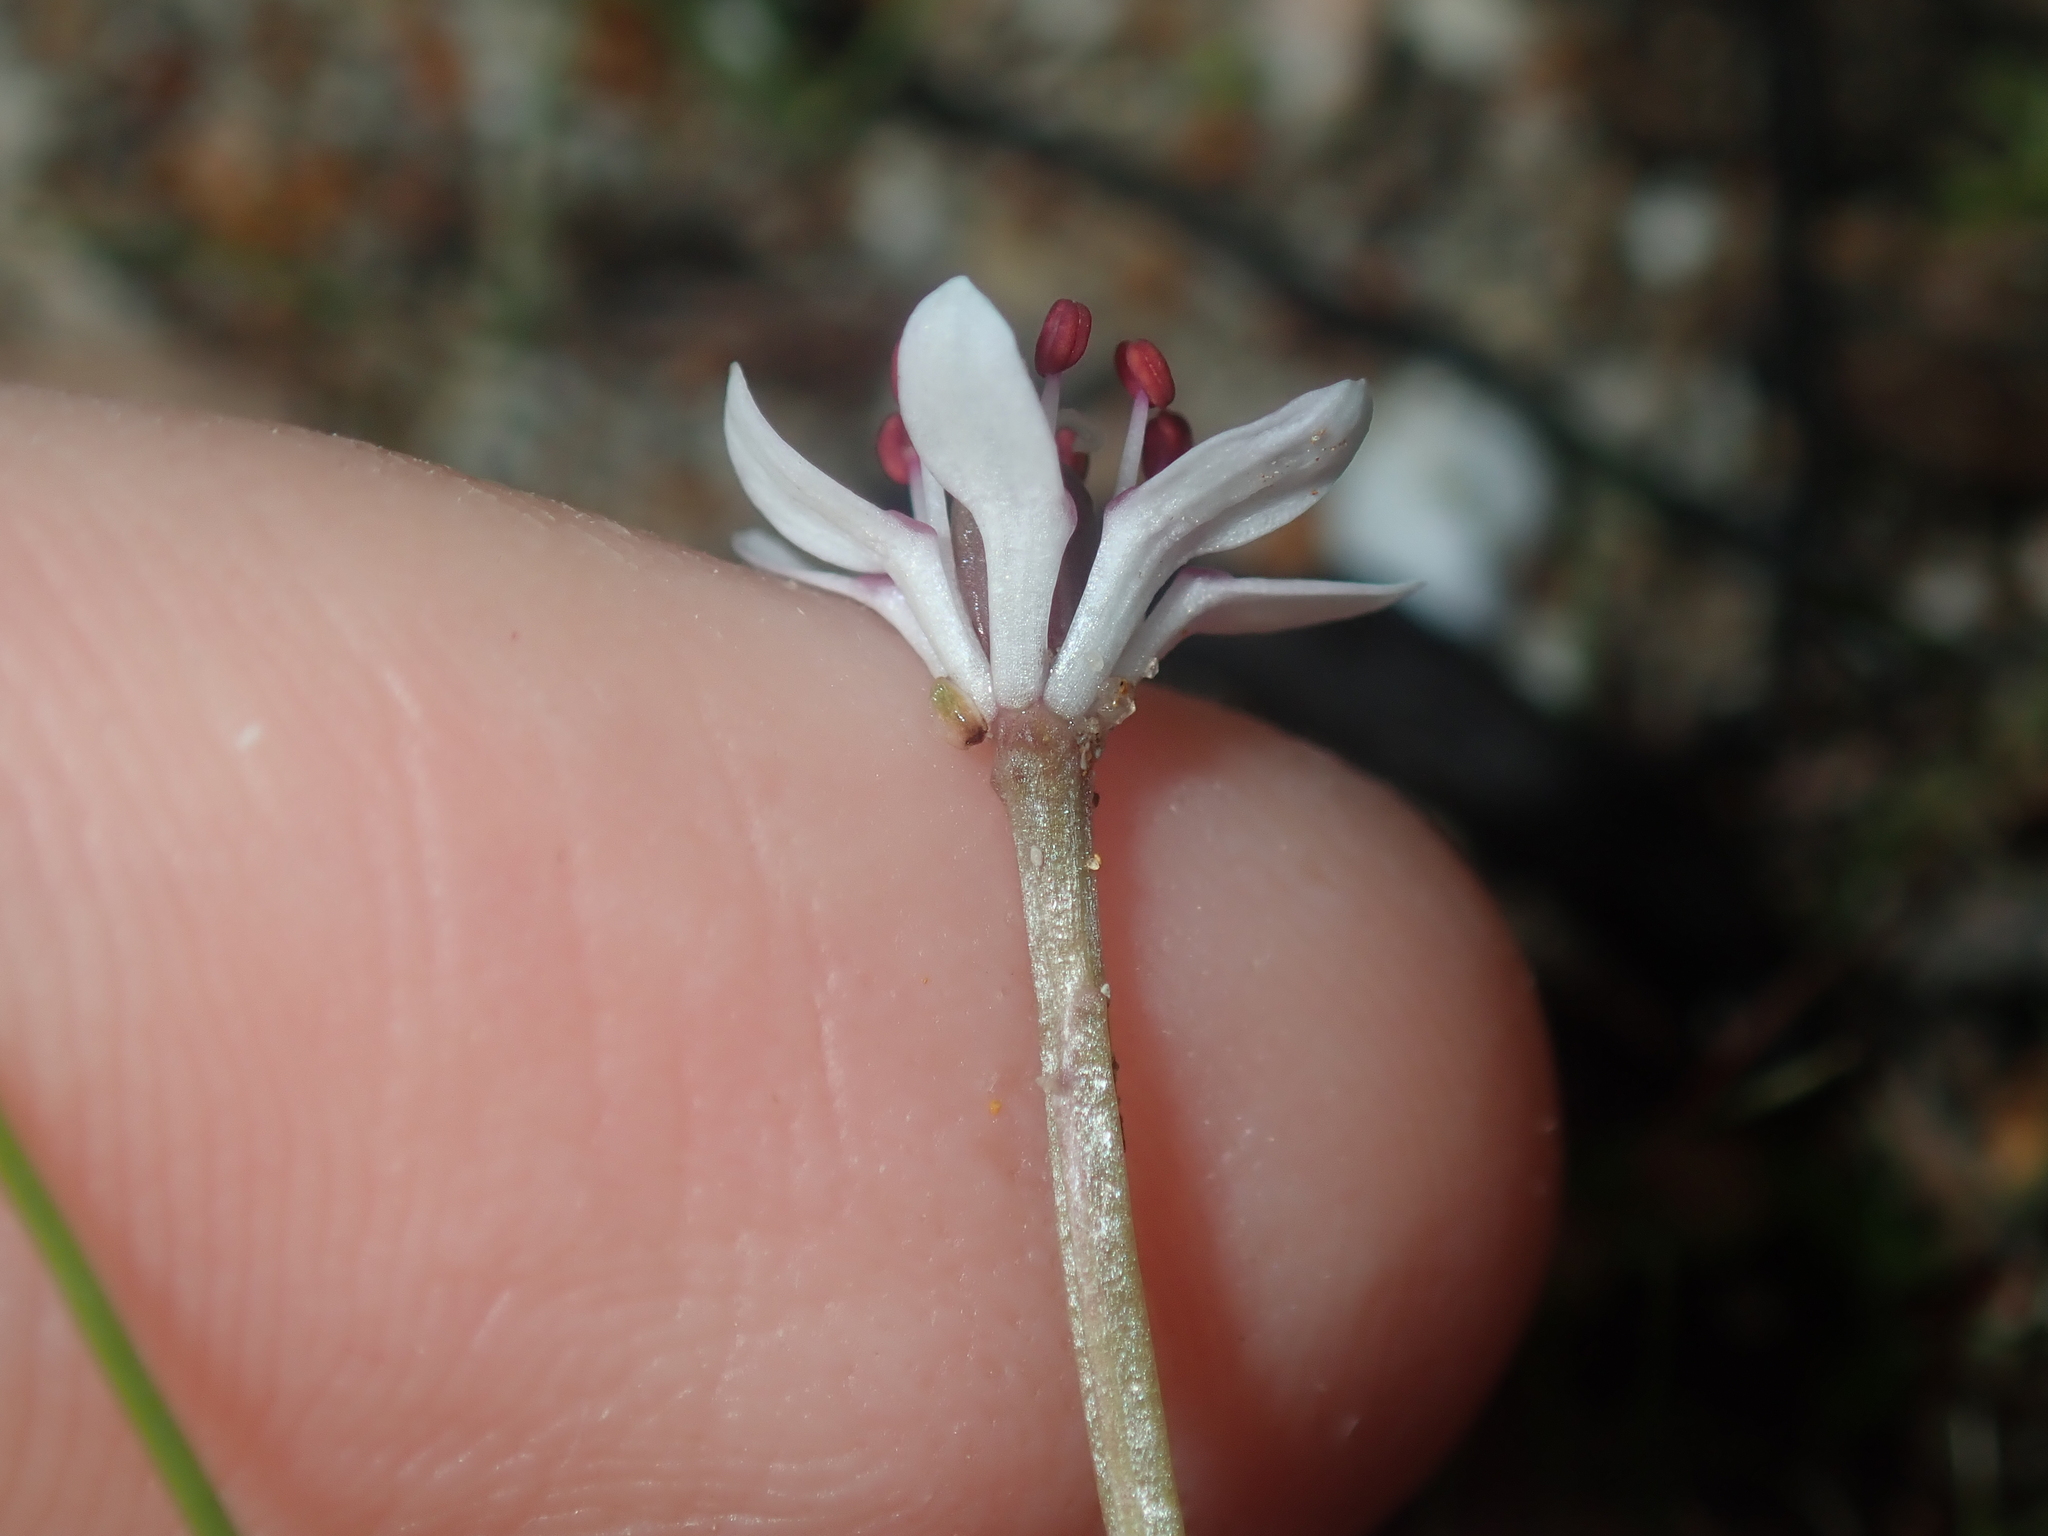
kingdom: Plantae
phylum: Tracheophyta
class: Liliopsida
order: Liliales
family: Colchicaceae
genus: Wurmbea
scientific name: Wurmbea monantha
